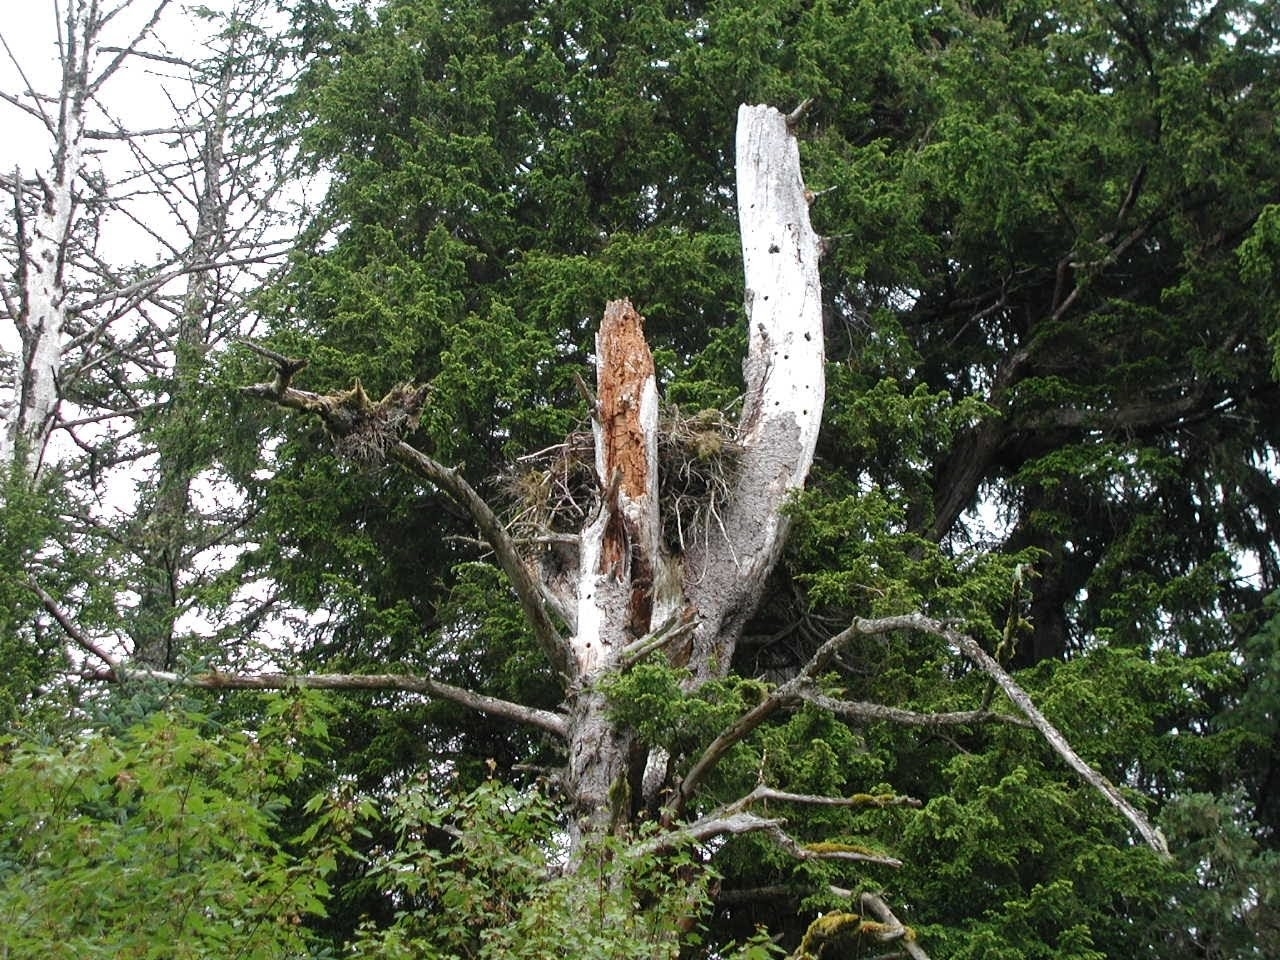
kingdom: Animalia
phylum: Chordata
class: Aves
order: Accipitriformes
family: Accipitridae
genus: Haliaeetus
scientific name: Haliaeetus leucocephalus
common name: Bald eagle
